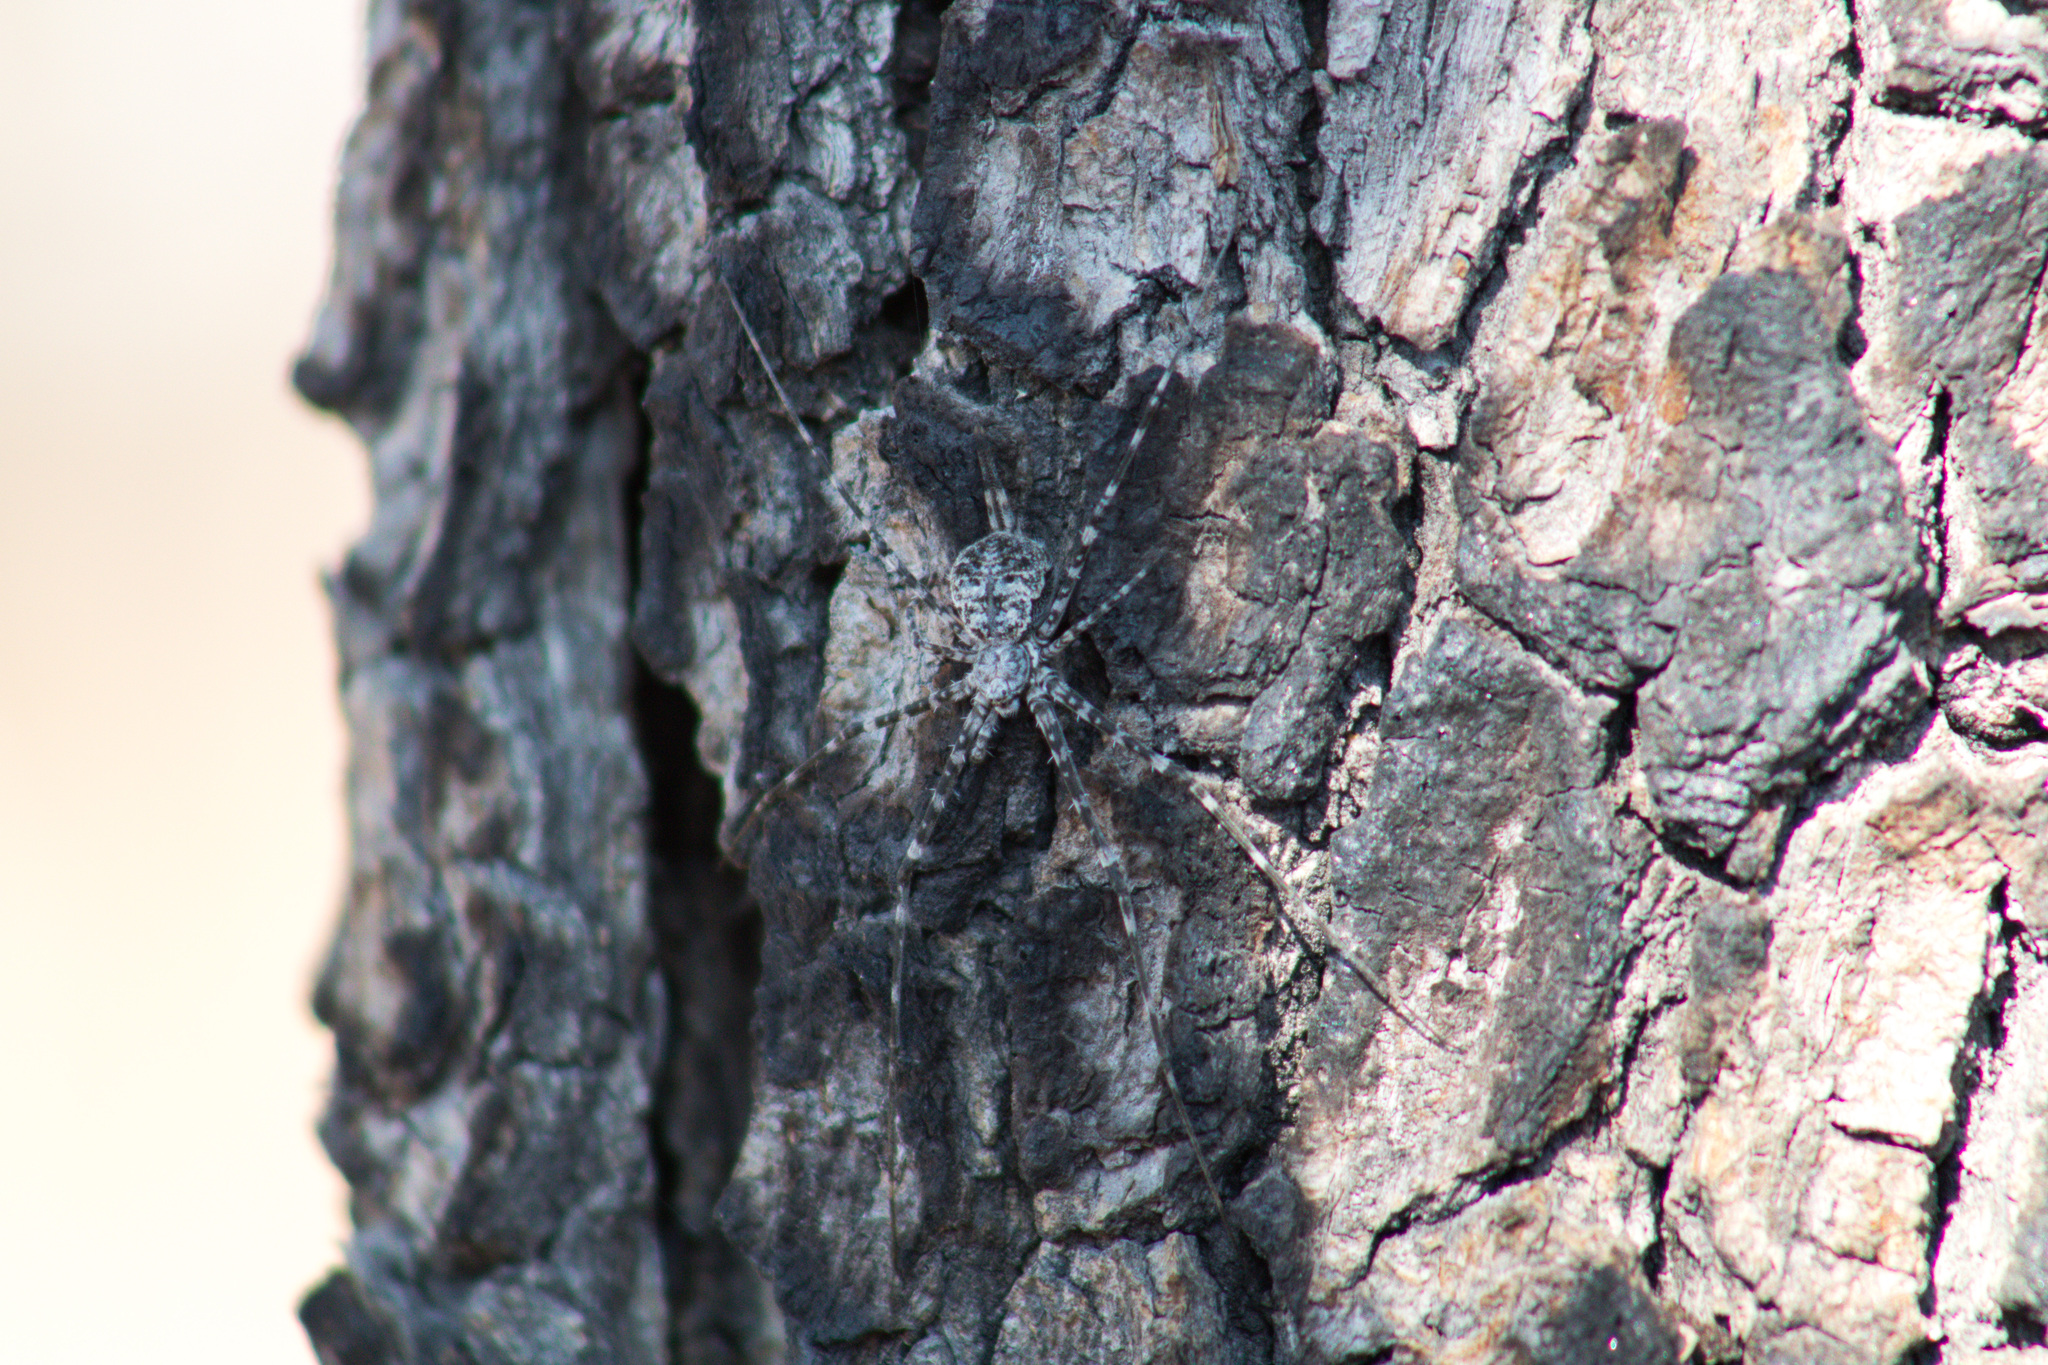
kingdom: Animalia
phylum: Arthropoda
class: Arachnida
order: Araneae
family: Hersiliidae
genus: Neotama
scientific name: Neotama mexicana
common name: Tree trunk spiders
